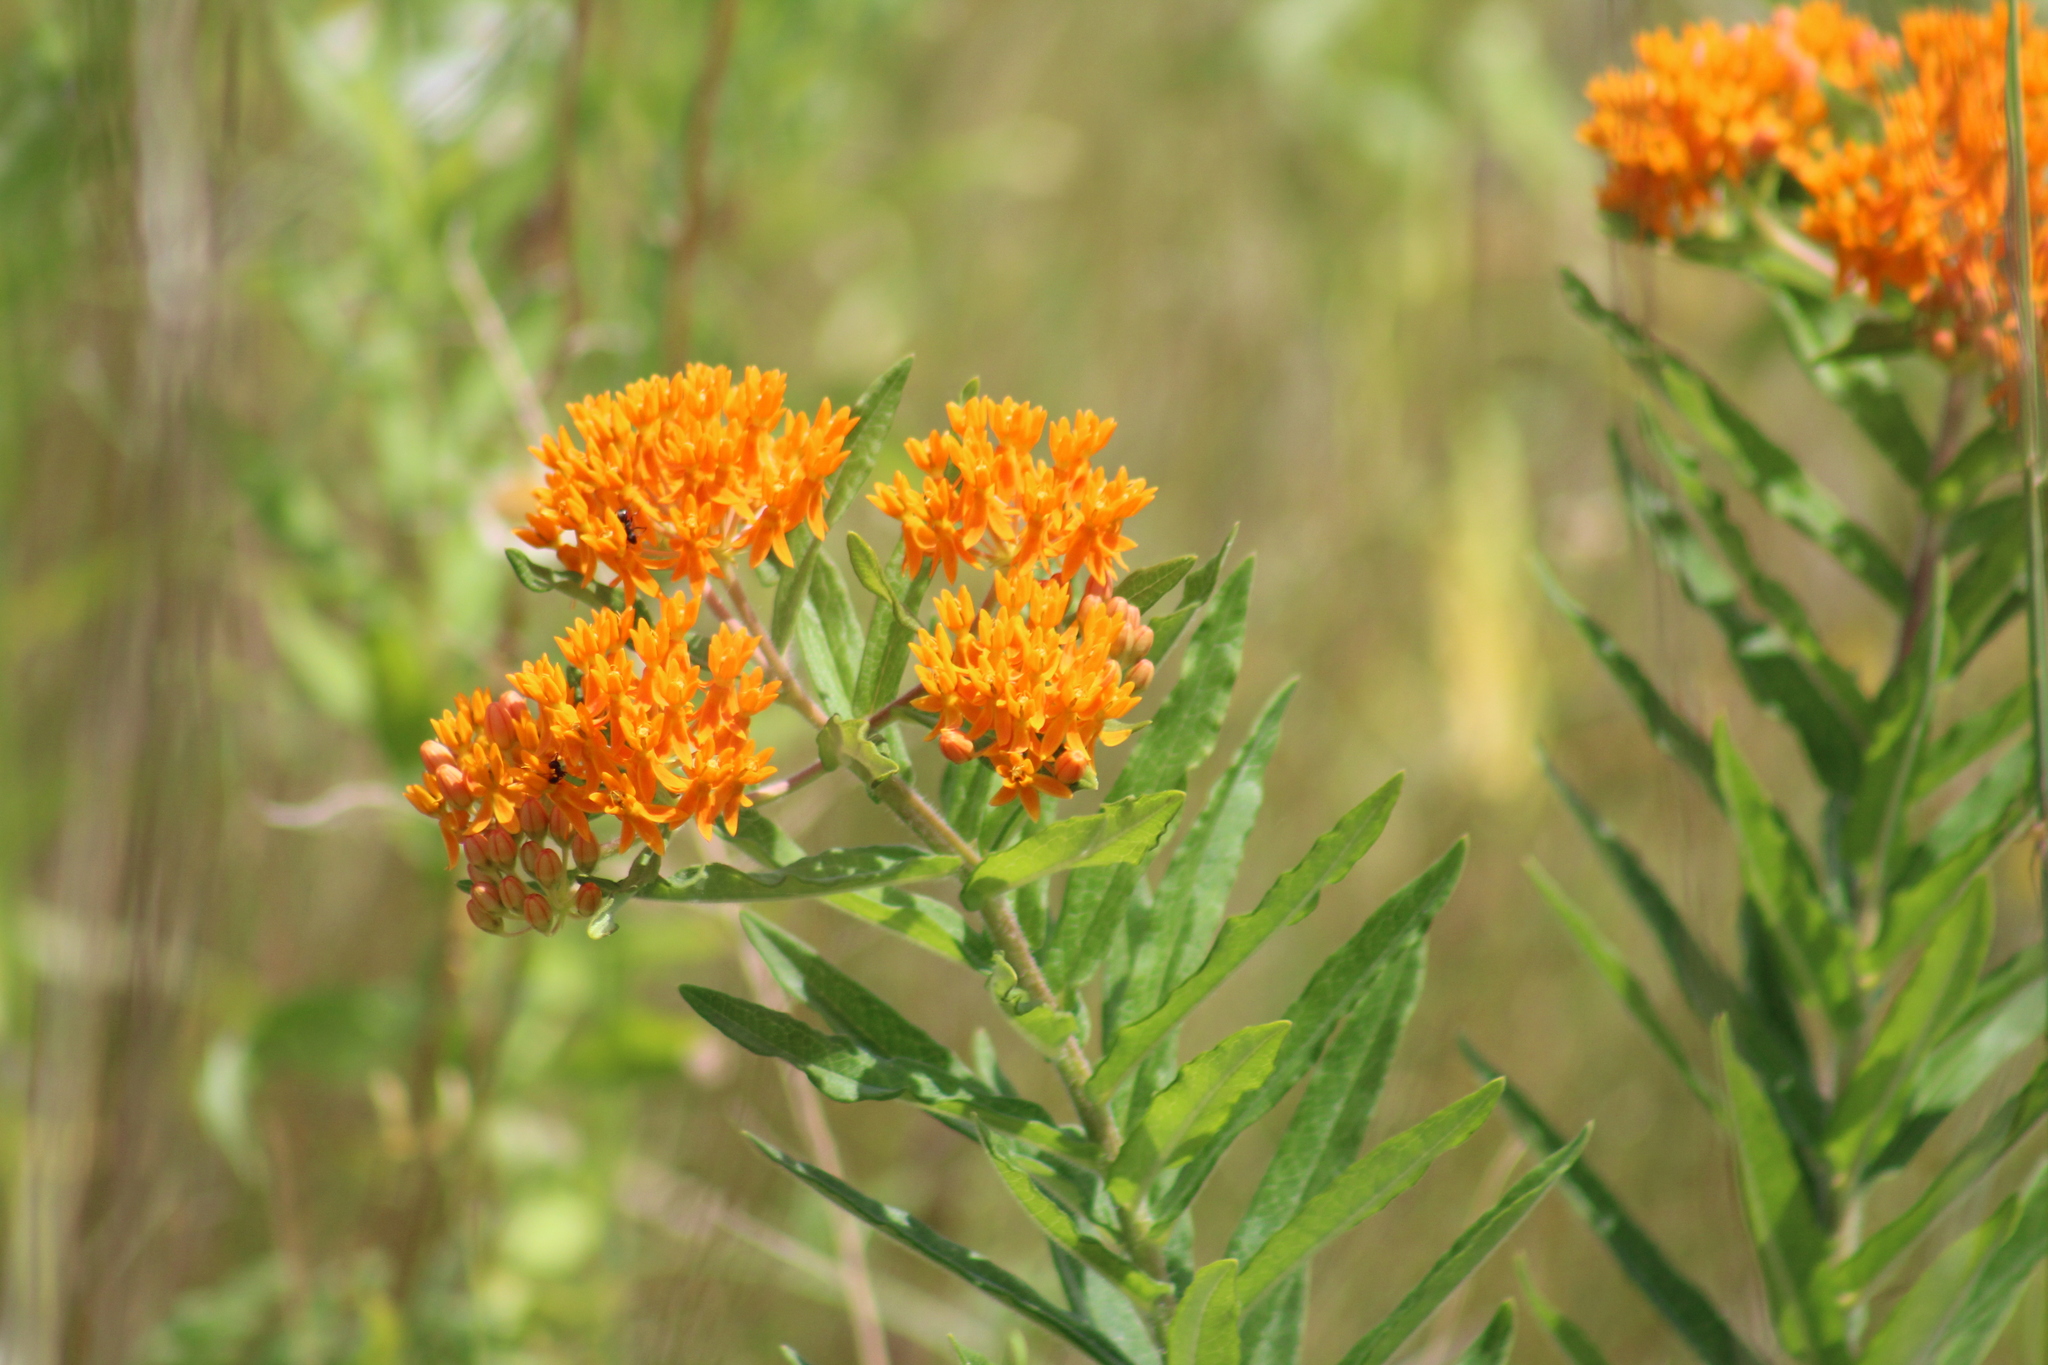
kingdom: Plantae
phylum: Tracheophyta
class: Magnoliopsida
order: Gentianales
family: Apocynaceae
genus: Asclepias
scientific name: Asclepias tuberosa
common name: Butterfly milkweed
